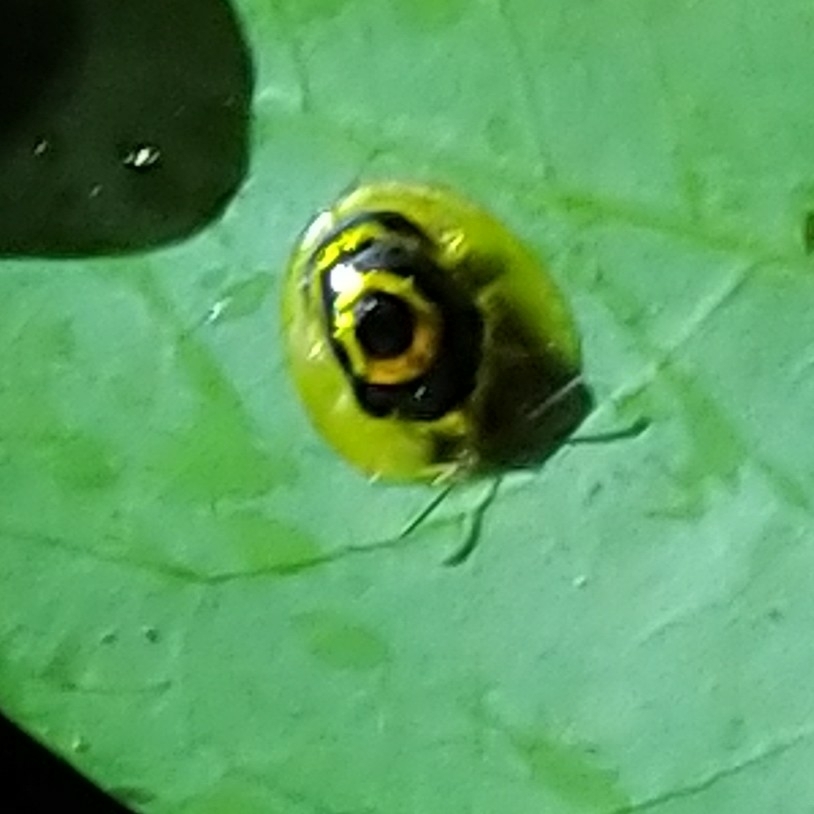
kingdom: Animalia
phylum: Arthropoda
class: Insecta
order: Coleoptera
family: Chrysomelidae
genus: Ischnocodia
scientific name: Ischnocodia annulus
